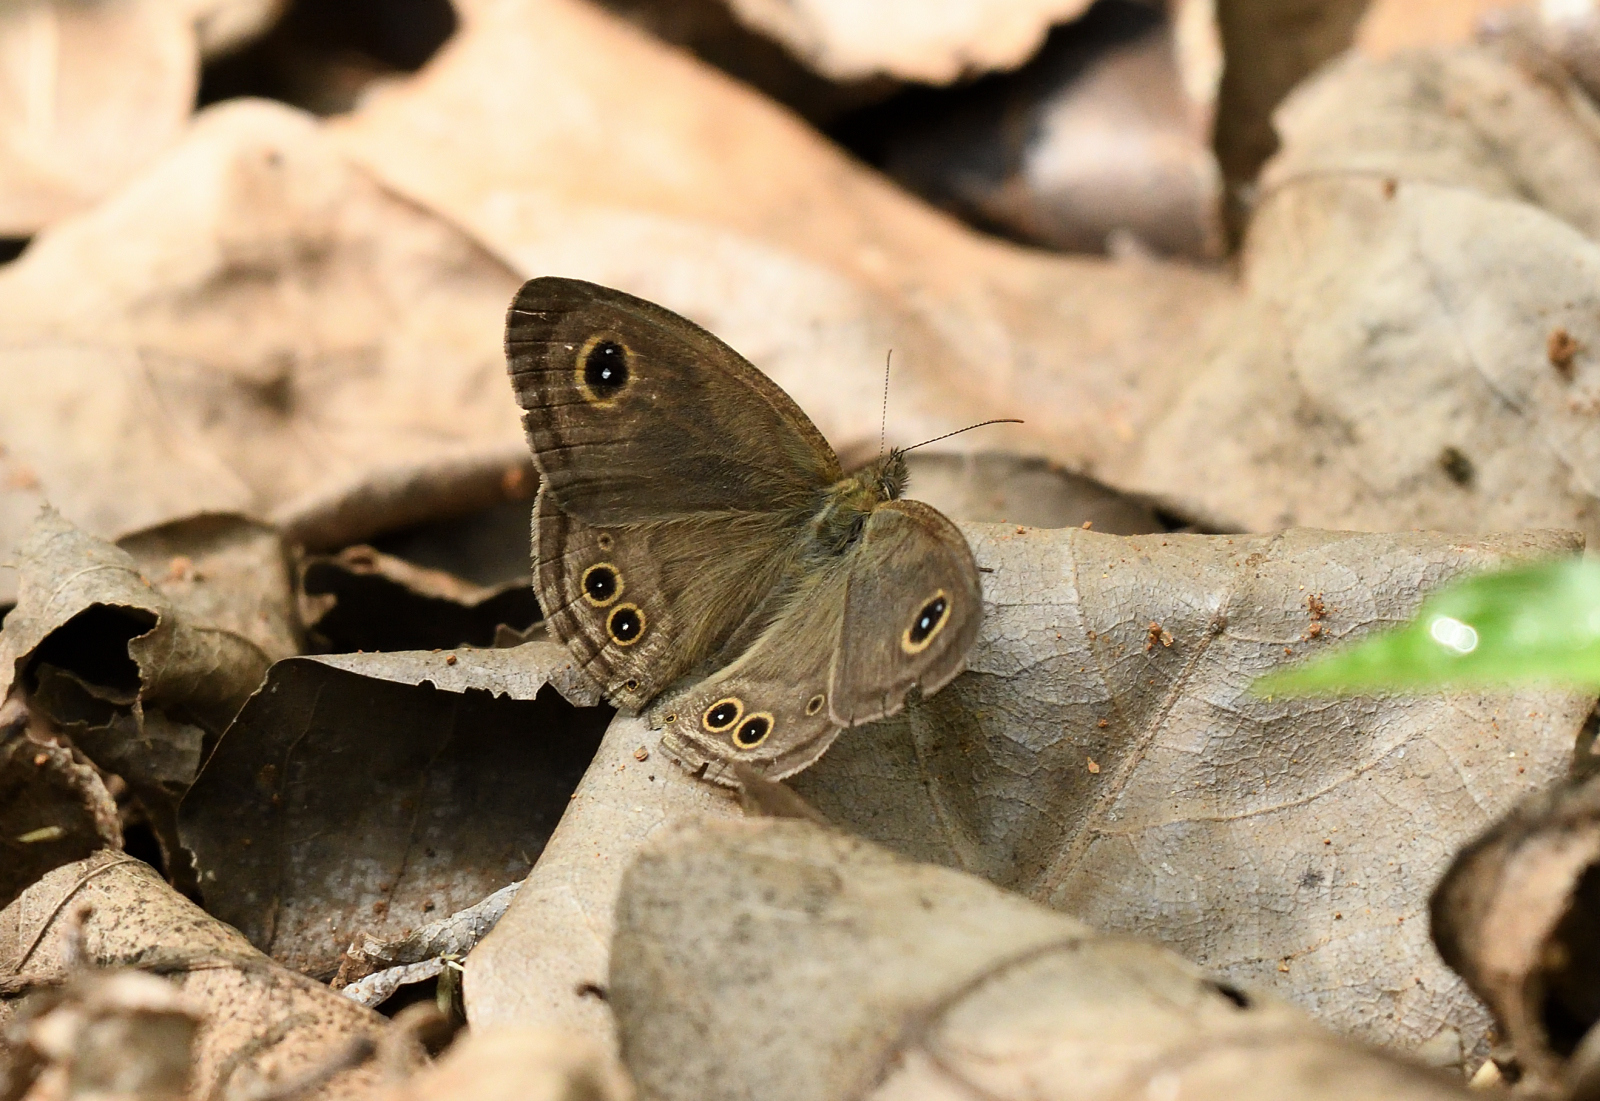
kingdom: Animalia
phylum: Arthropoda
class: Insecta
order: Lepidoptera
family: Nymphalidae
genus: Ypthima
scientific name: Ypthima baldus
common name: Common five-ring
